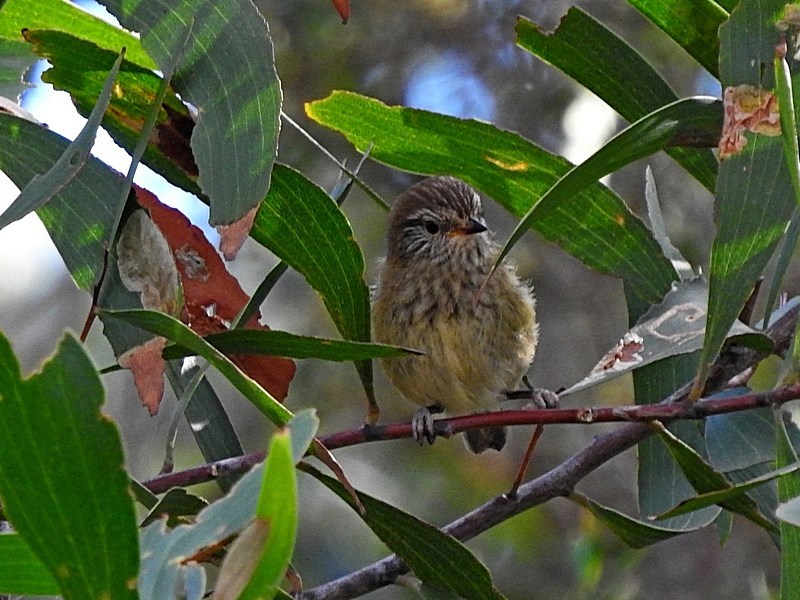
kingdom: Animalia
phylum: Chordata
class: Aves
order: Passeriformes
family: Acanthizidae
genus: Acanthiza
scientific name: Acanthiza lineata
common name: Striated thornbill
